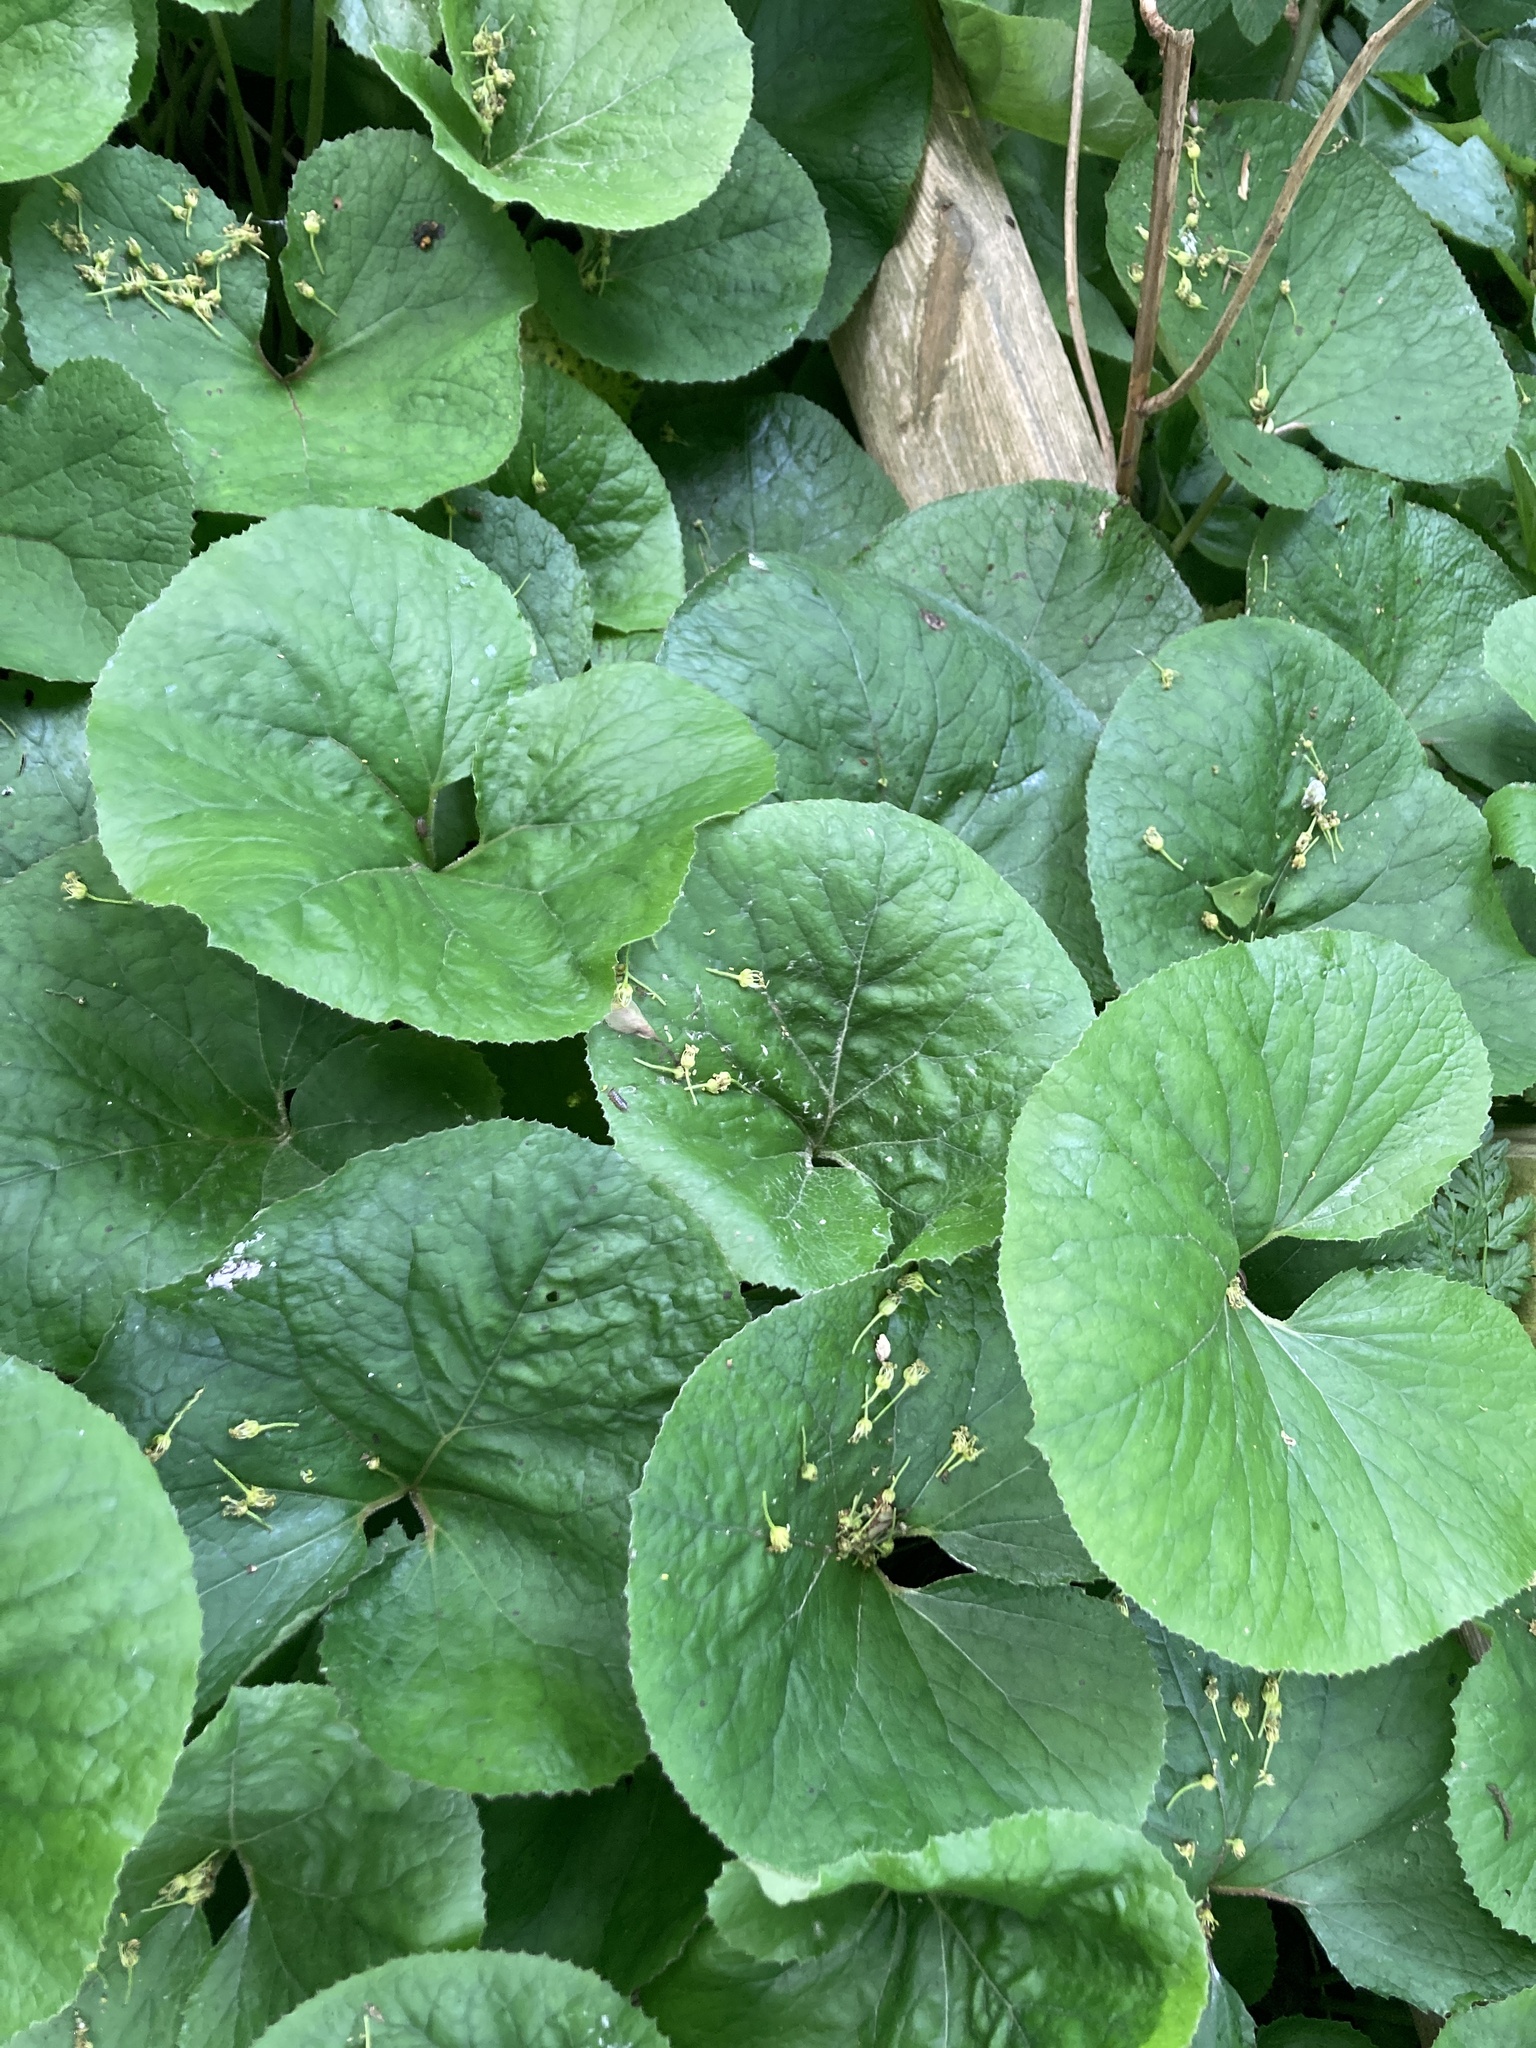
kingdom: Plantae
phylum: Tracheophyta
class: Magnoliopsida
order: Asterales
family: Asteraceae
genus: Petasites
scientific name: Petasites pyrenaicus
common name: Winter heliotrope
